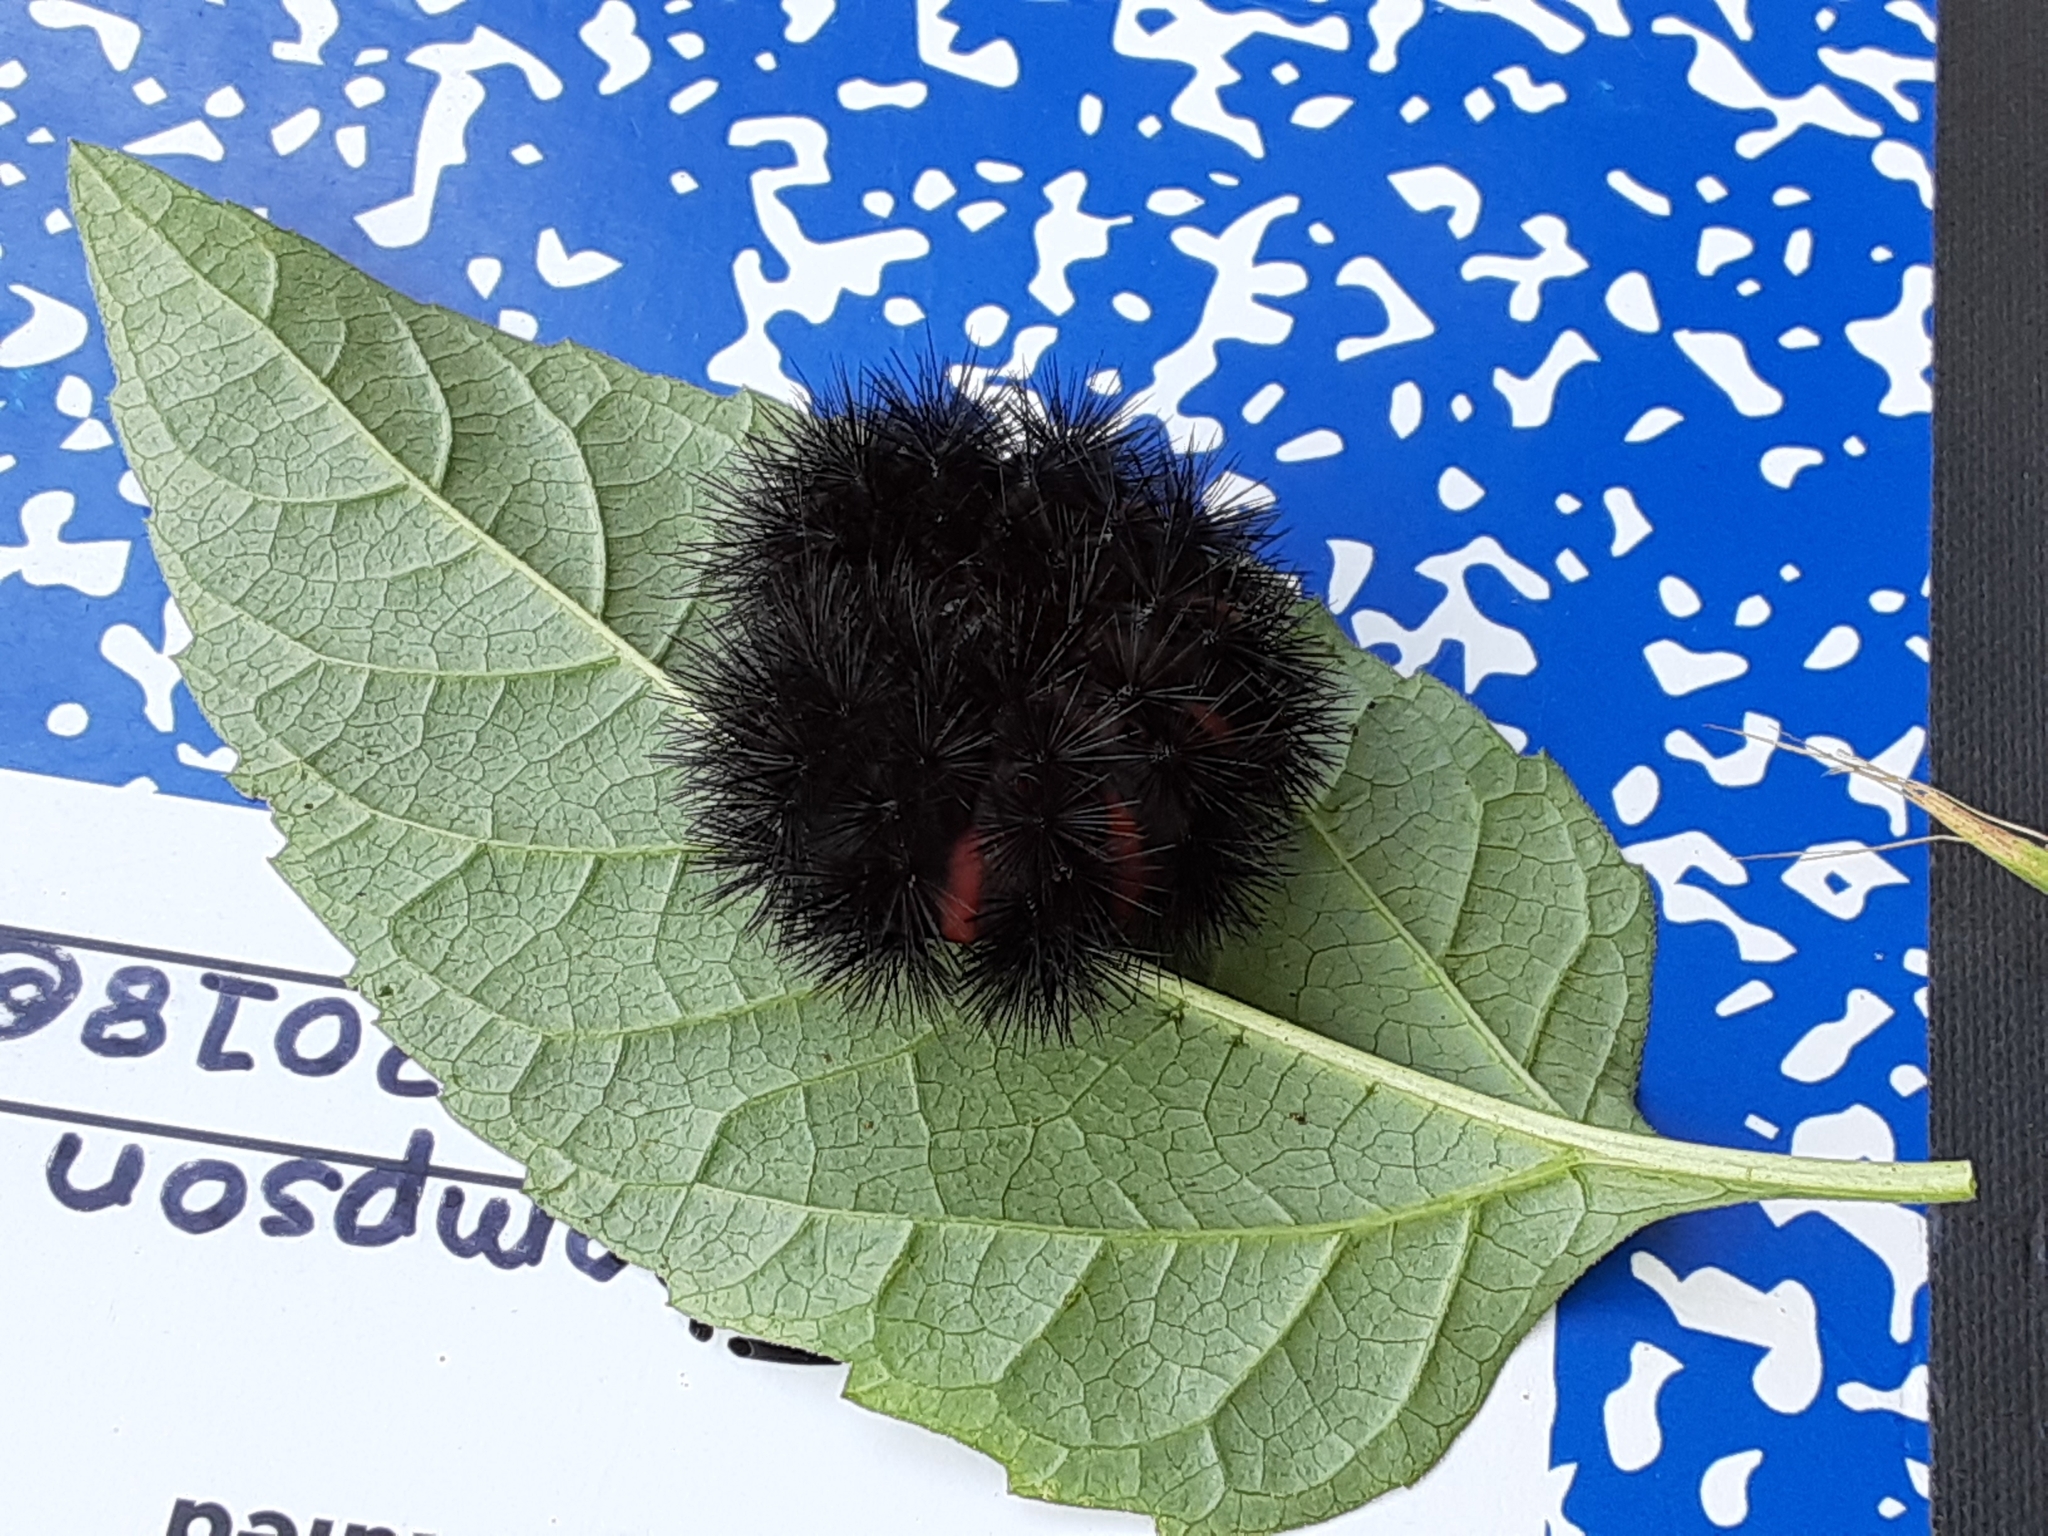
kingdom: Animalia
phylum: Arthropoda
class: Insecta
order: Lepidoptera
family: Erebidae
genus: Hypercompe
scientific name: Hypercompe scribonia
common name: Giant leopard moth
